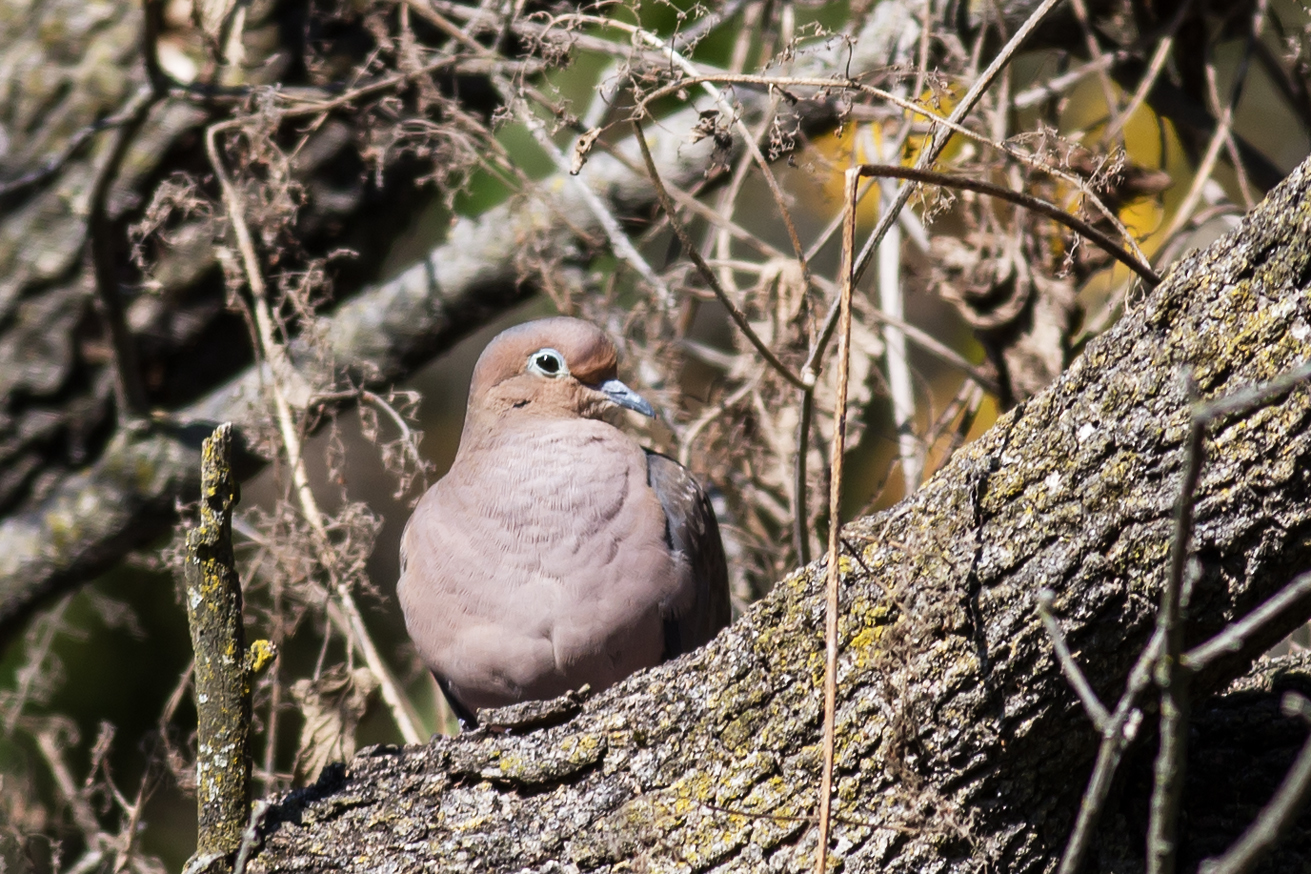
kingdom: Animalia
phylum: Chordata
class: Aves
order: Columbiformes
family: Columbidae
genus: Zenaida
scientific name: Zenaida macroura
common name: Mourning dove
